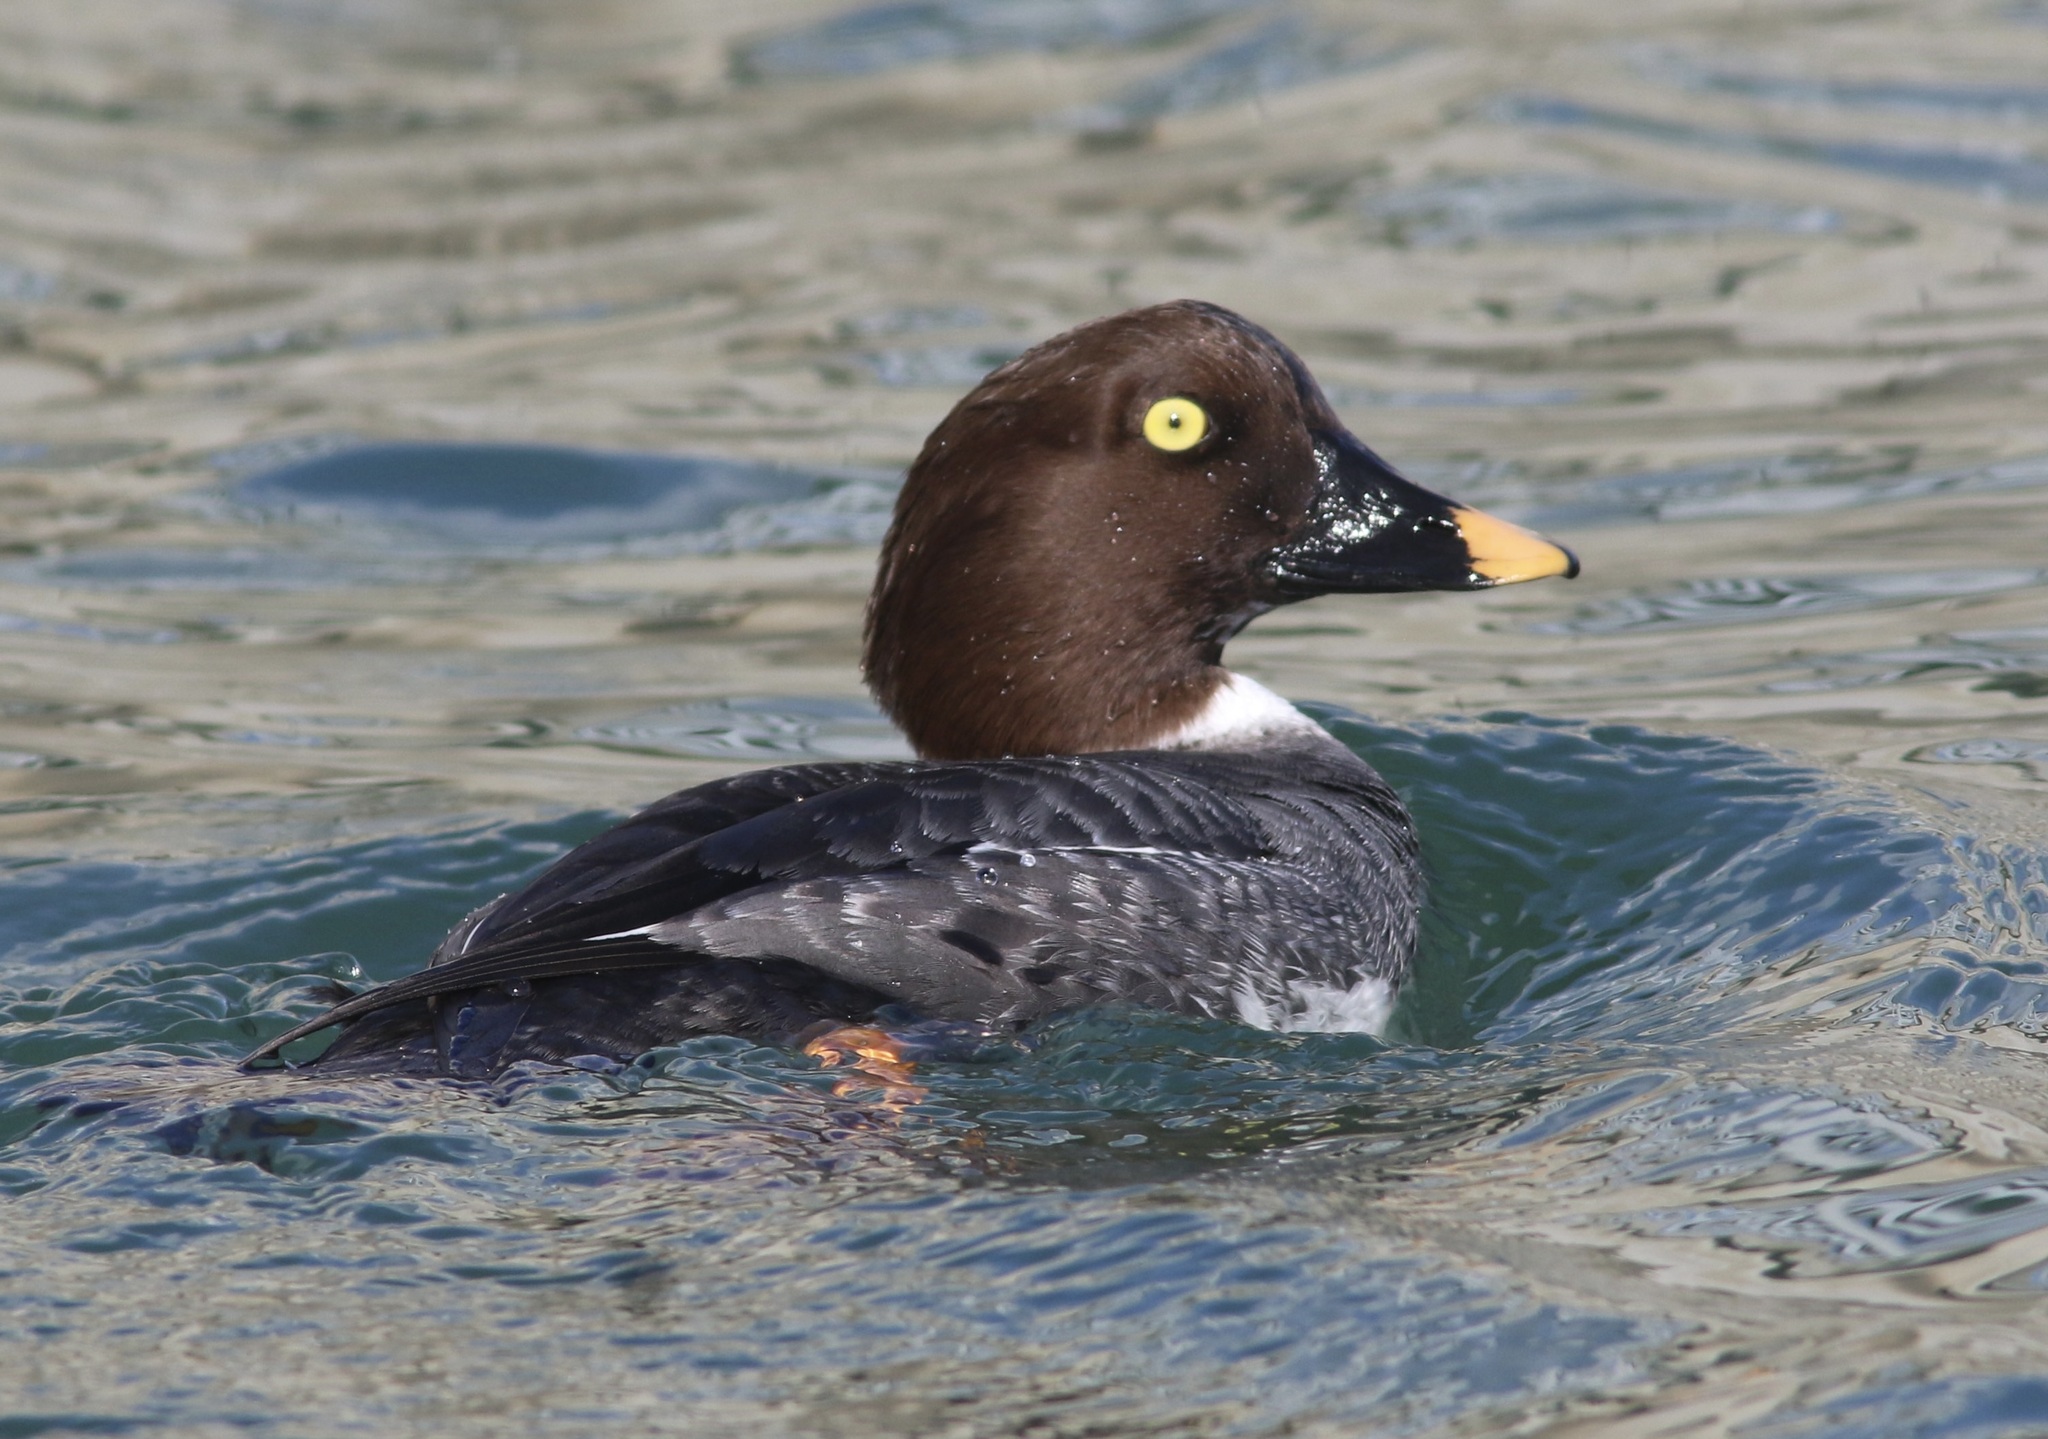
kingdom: Animalia
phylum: Chordata
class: Aves
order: Anseriformes
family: Anatidae
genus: Bucephala
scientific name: Bucephala clangula
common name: Common goldeneye
